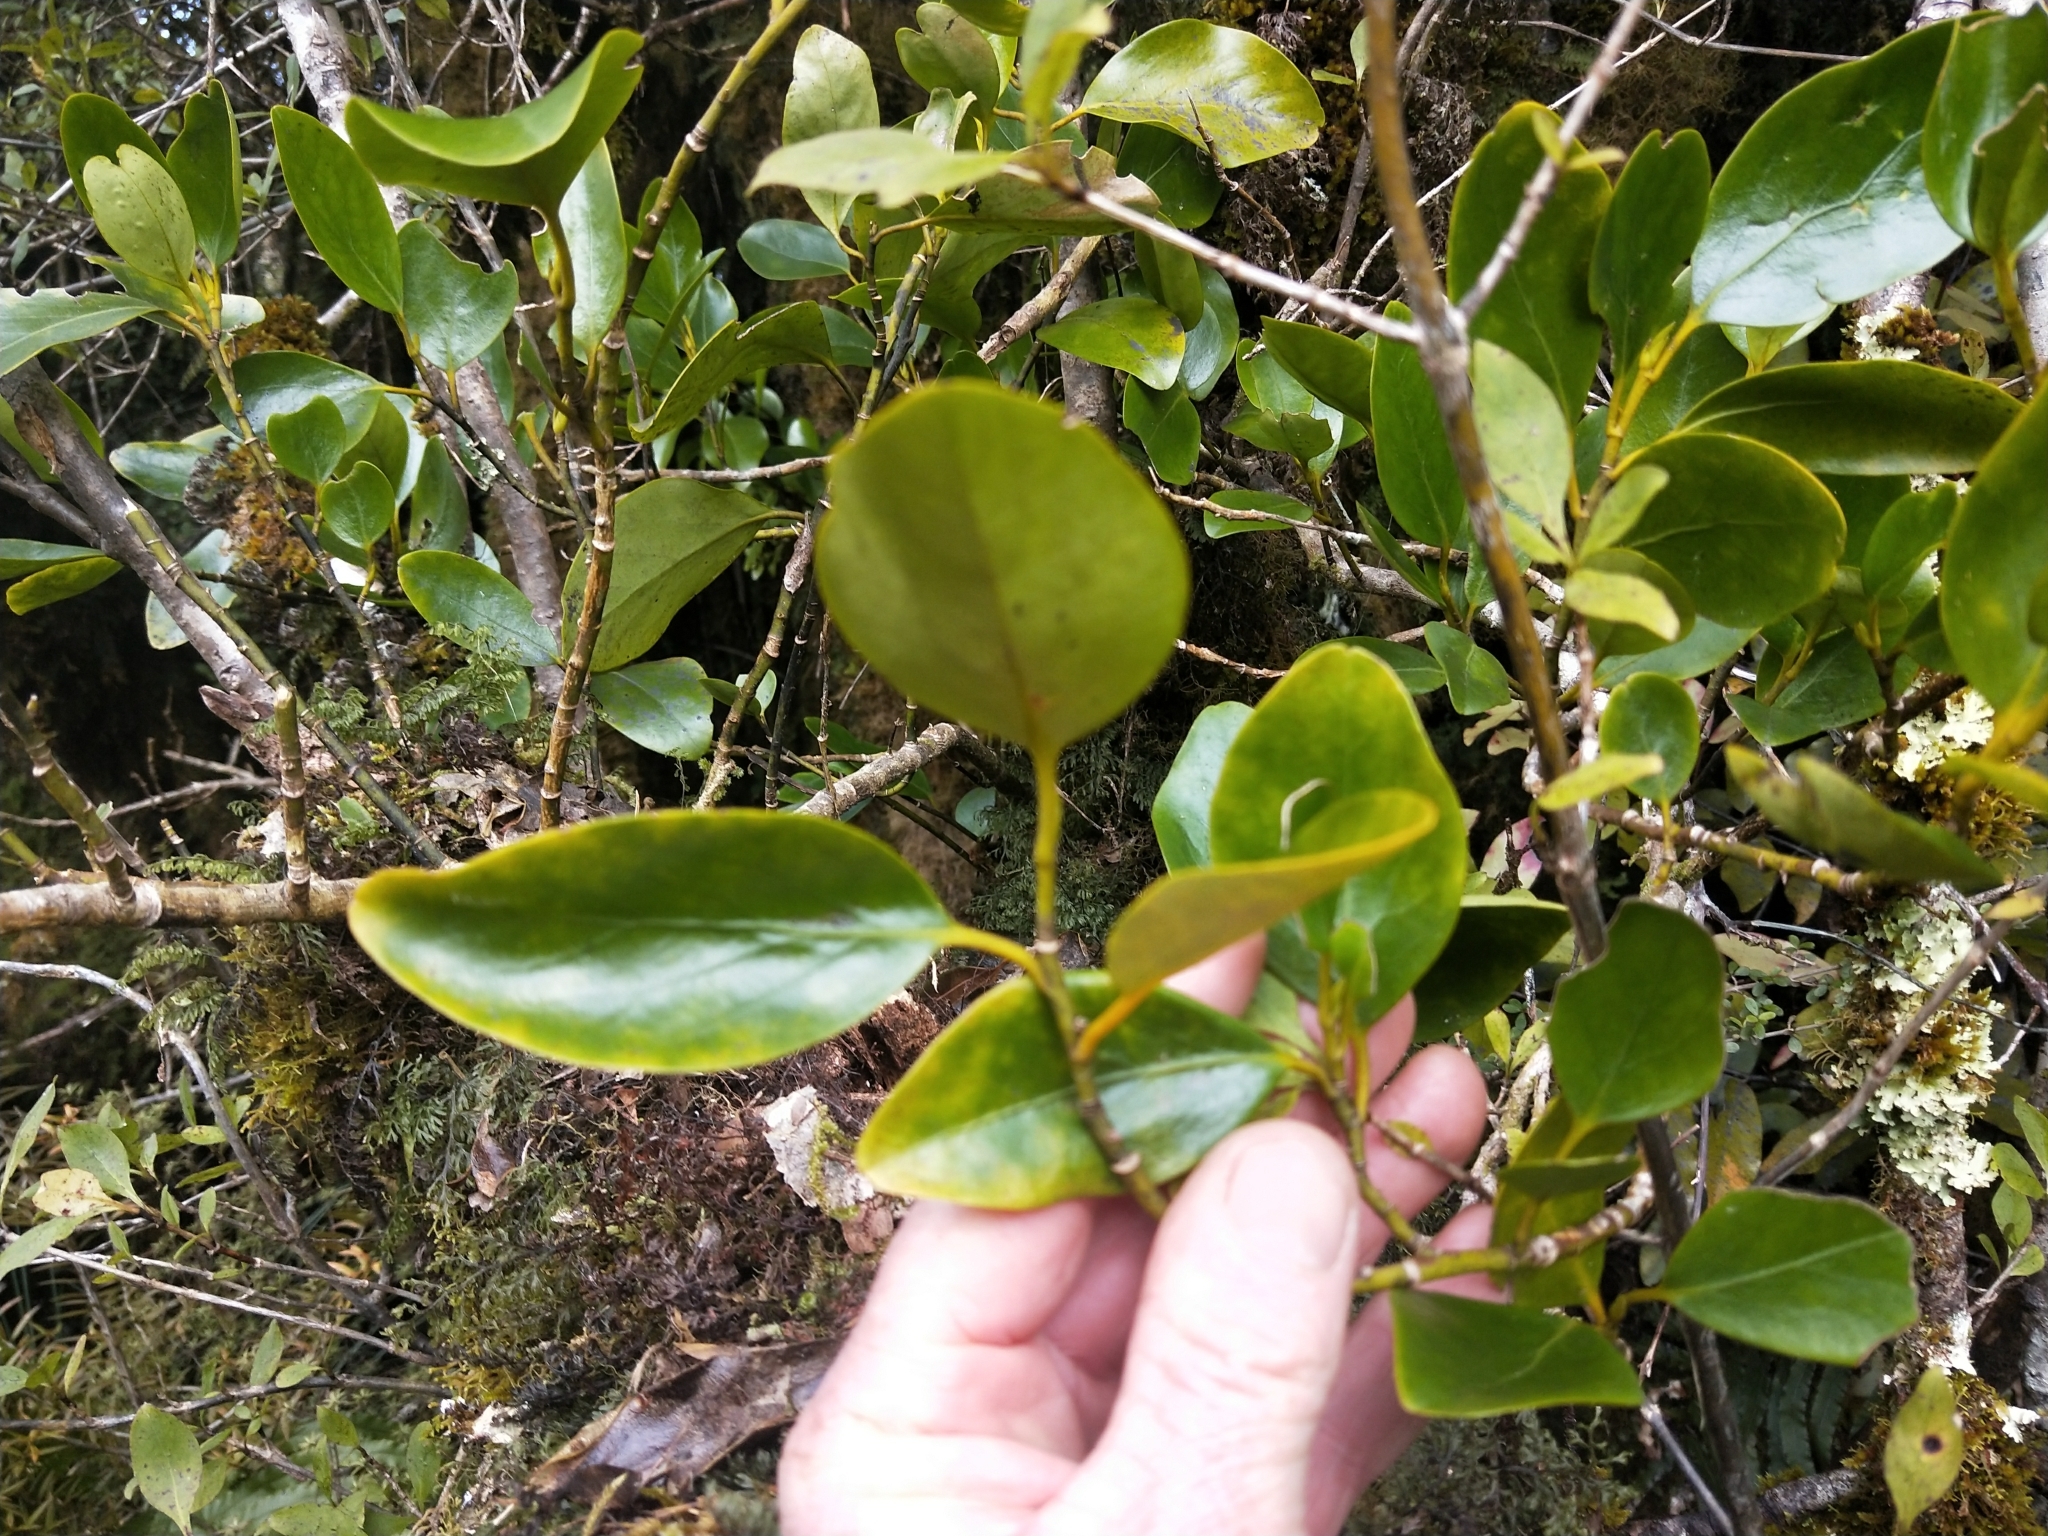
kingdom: Plantae
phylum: Tracheophyta
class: Magnoliopsida
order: Apiales
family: Griseliniaceae
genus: Griselinia
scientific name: Griselinia littoralis
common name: New zealand broadleaf
